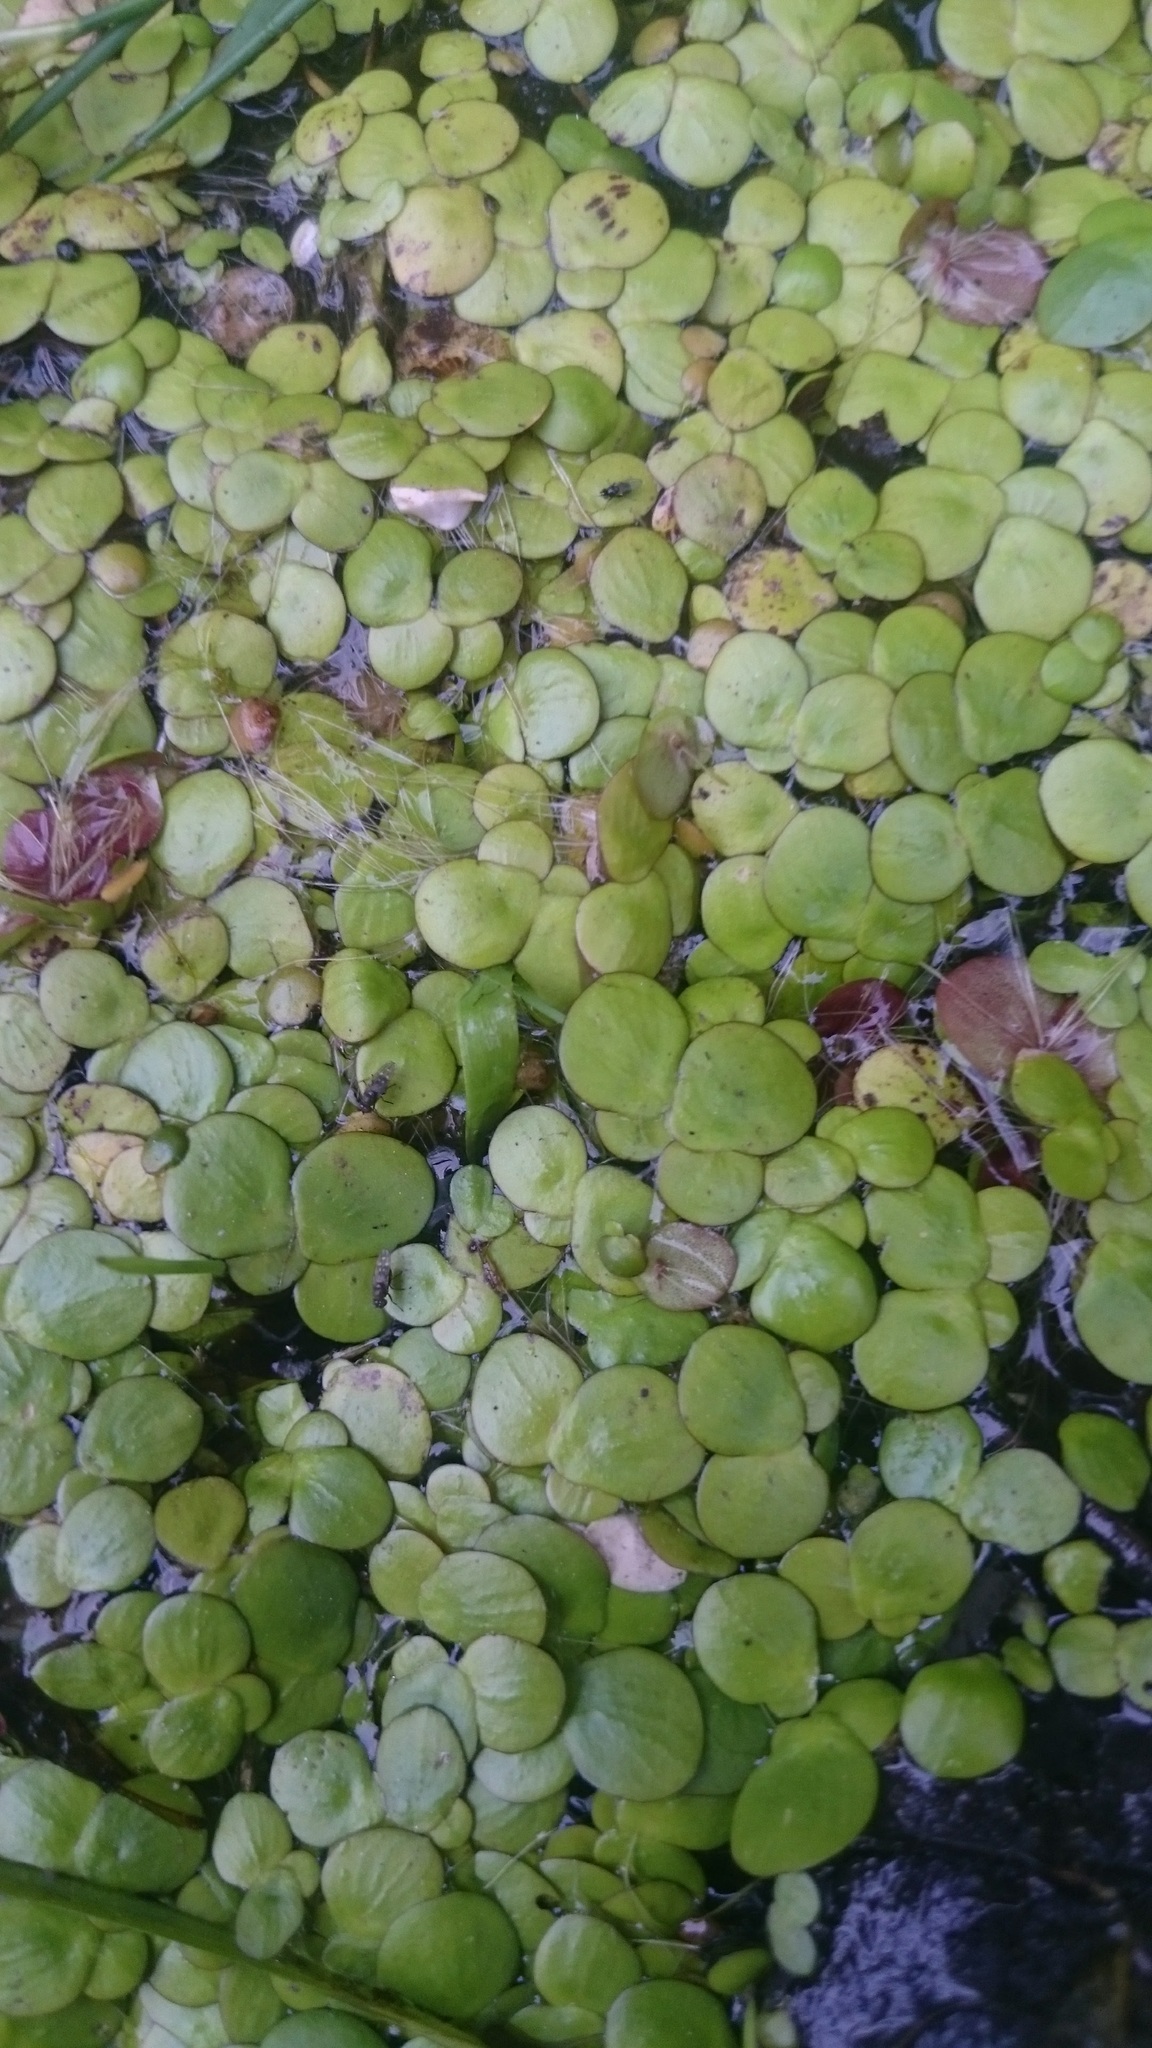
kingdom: Plantae
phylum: Tracheophyta
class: Liliopsida
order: Alismatales
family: Araceae
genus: Spirodela
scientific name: Spirodela polyrhiza
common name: Great duckweed
